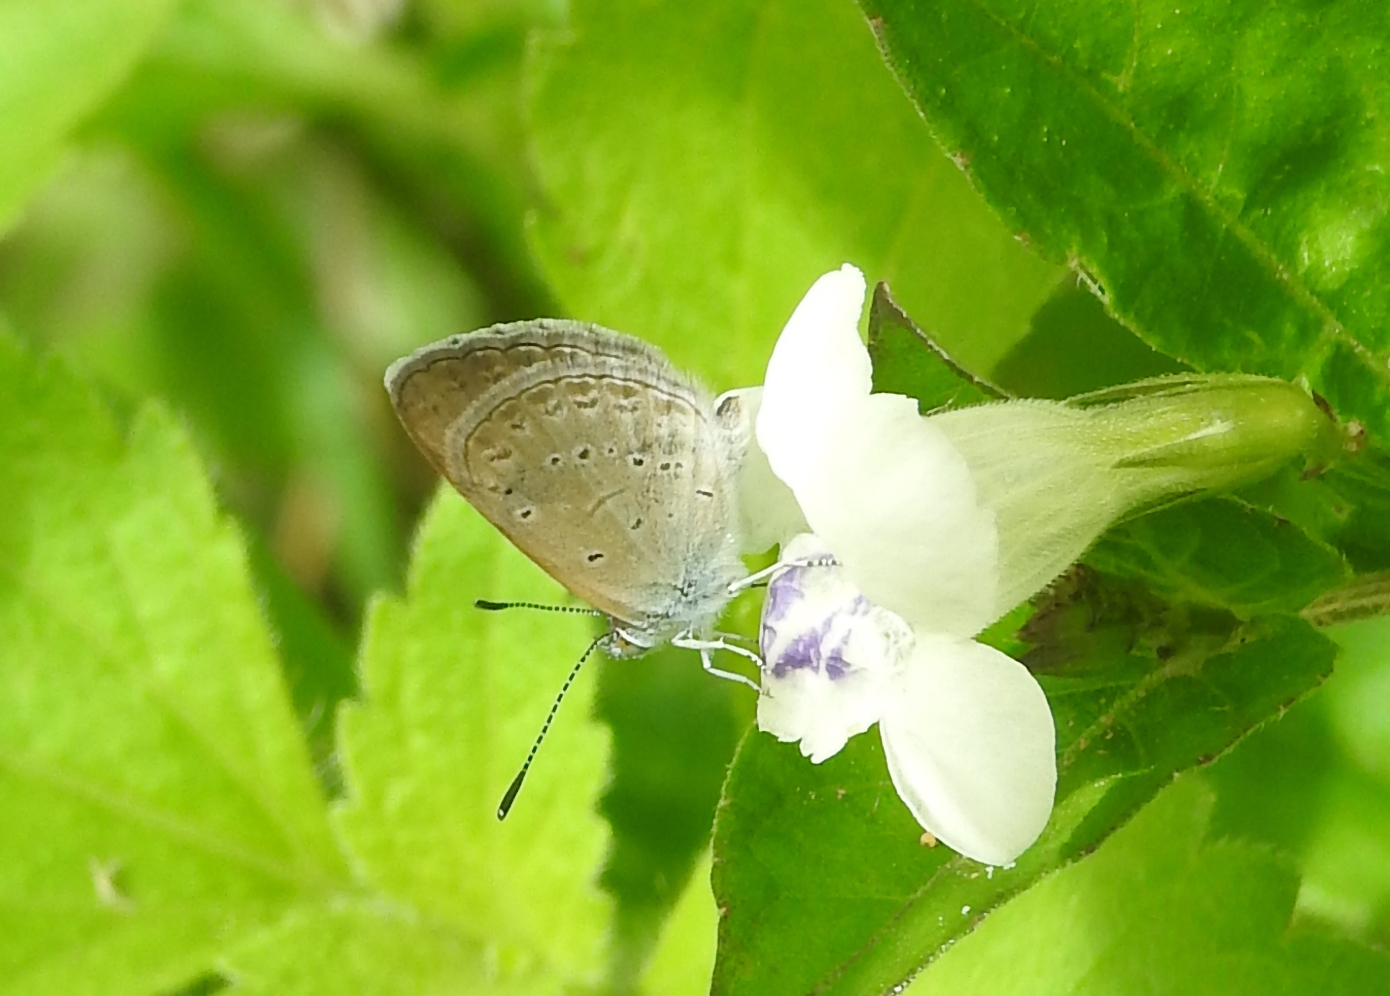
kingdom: Animalia
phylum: Arthropoda
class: Insecta
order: Lepidoptera
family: Lycaenidae
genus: Zizina
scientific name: Zizina otis
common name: Lesser grass blue
